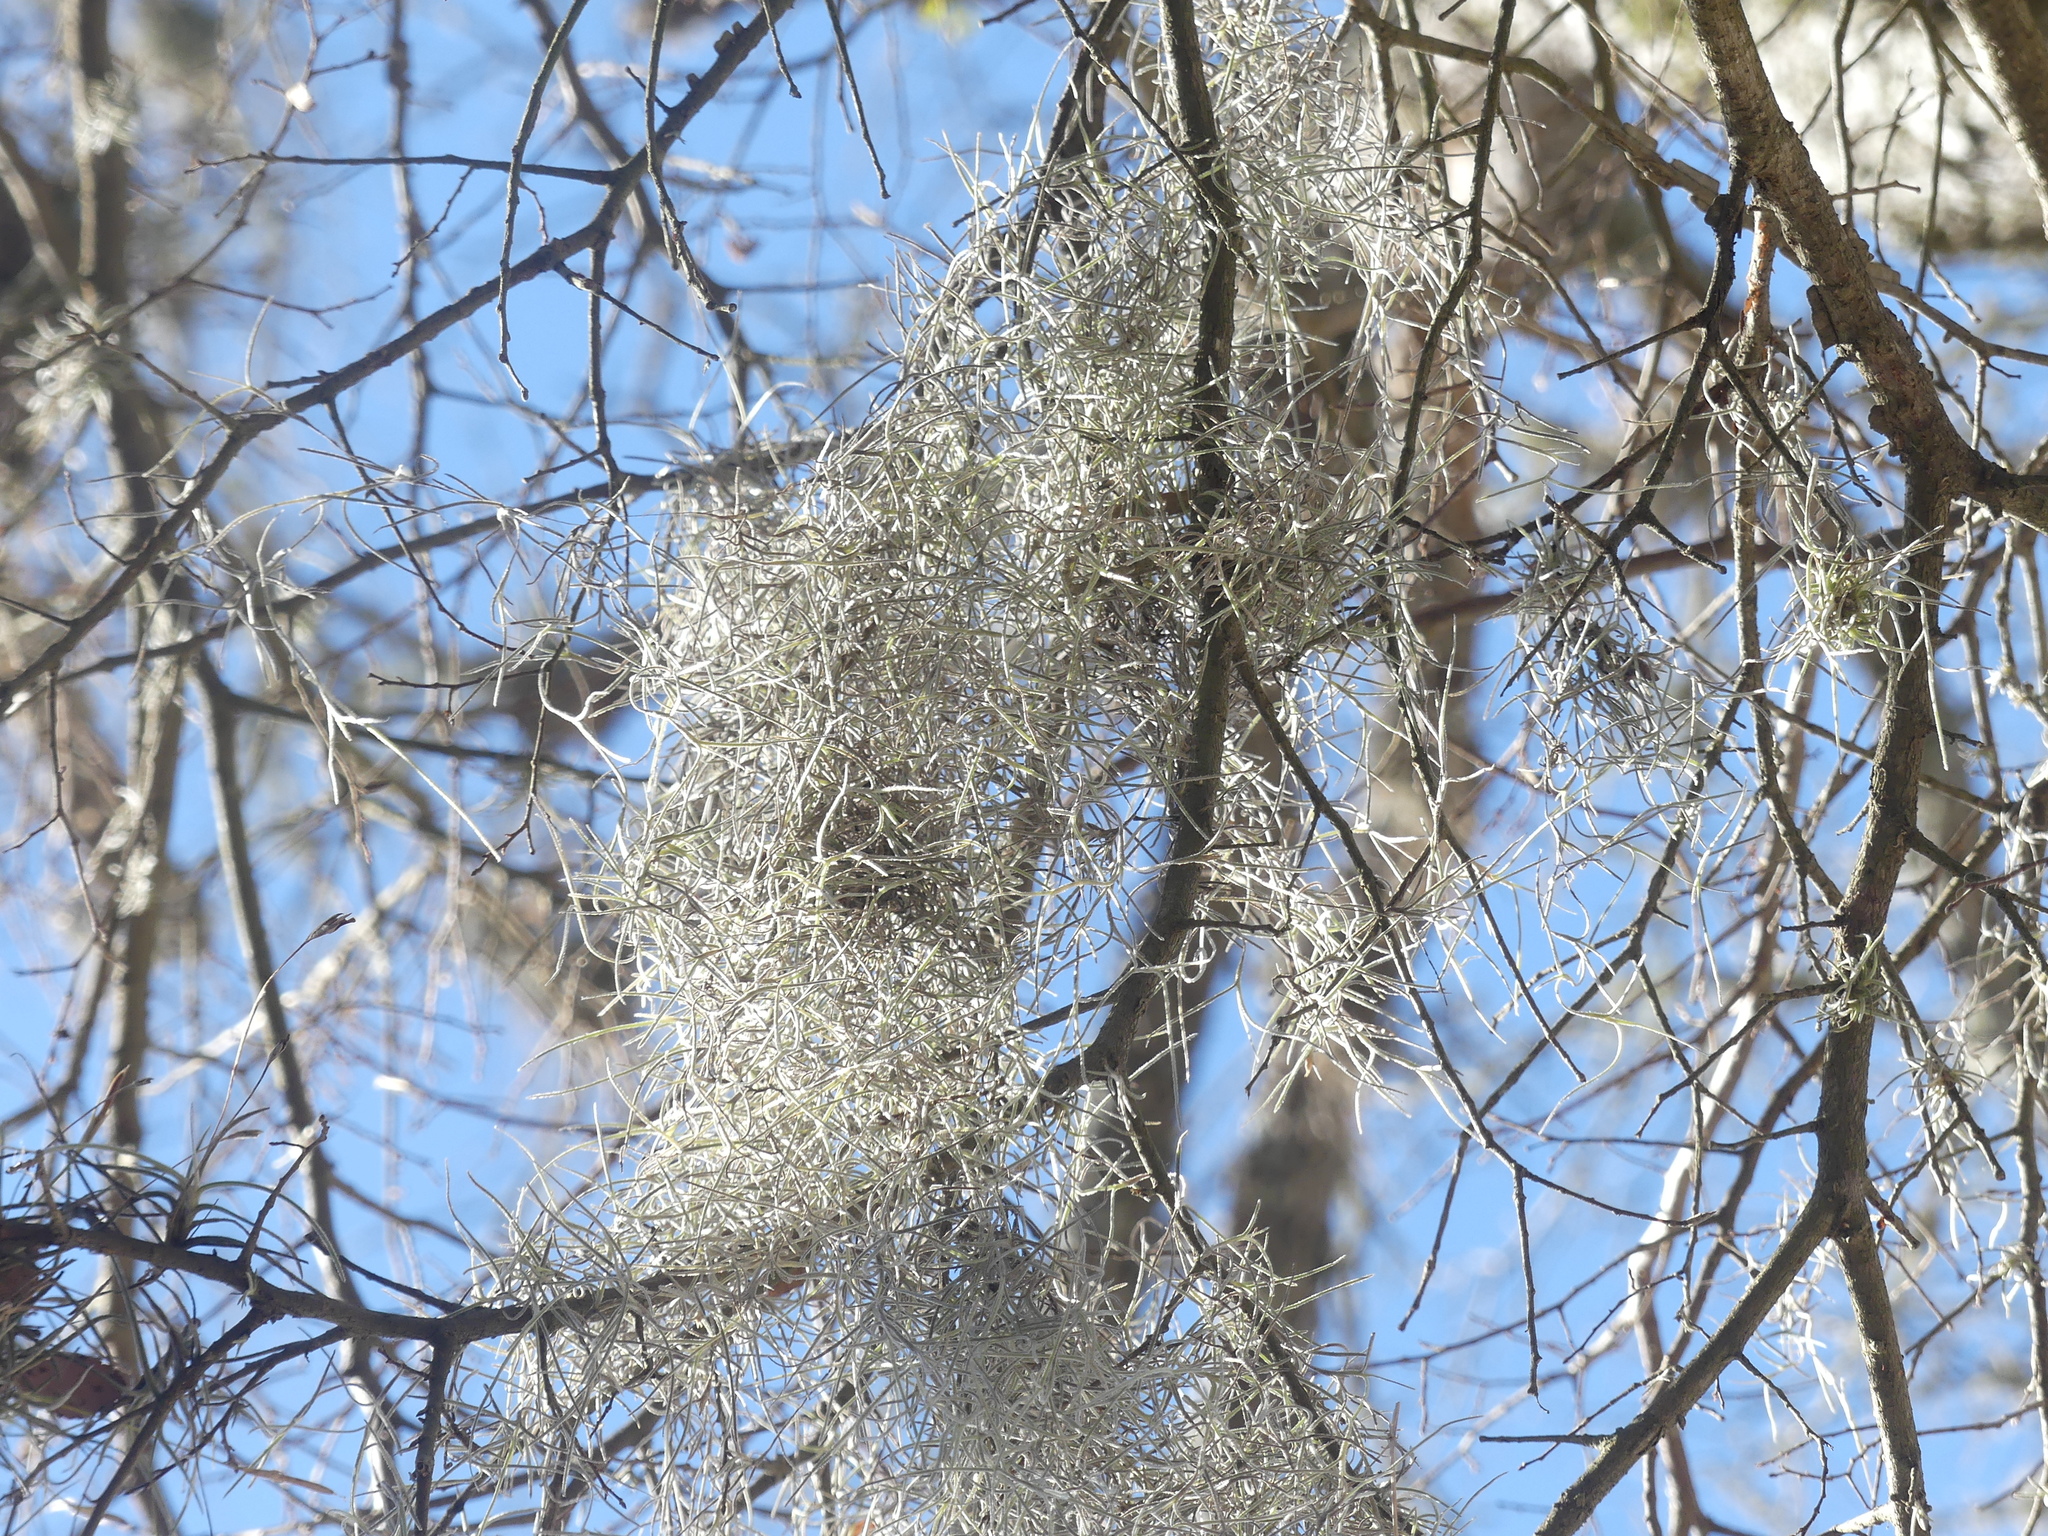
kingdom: Plantae
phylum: Tracheophyta
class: Liliopsida
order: Poales
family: Bromeliaceae
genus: Tillandsia
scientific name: Tillandsia usneoides
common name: Spanish moss
